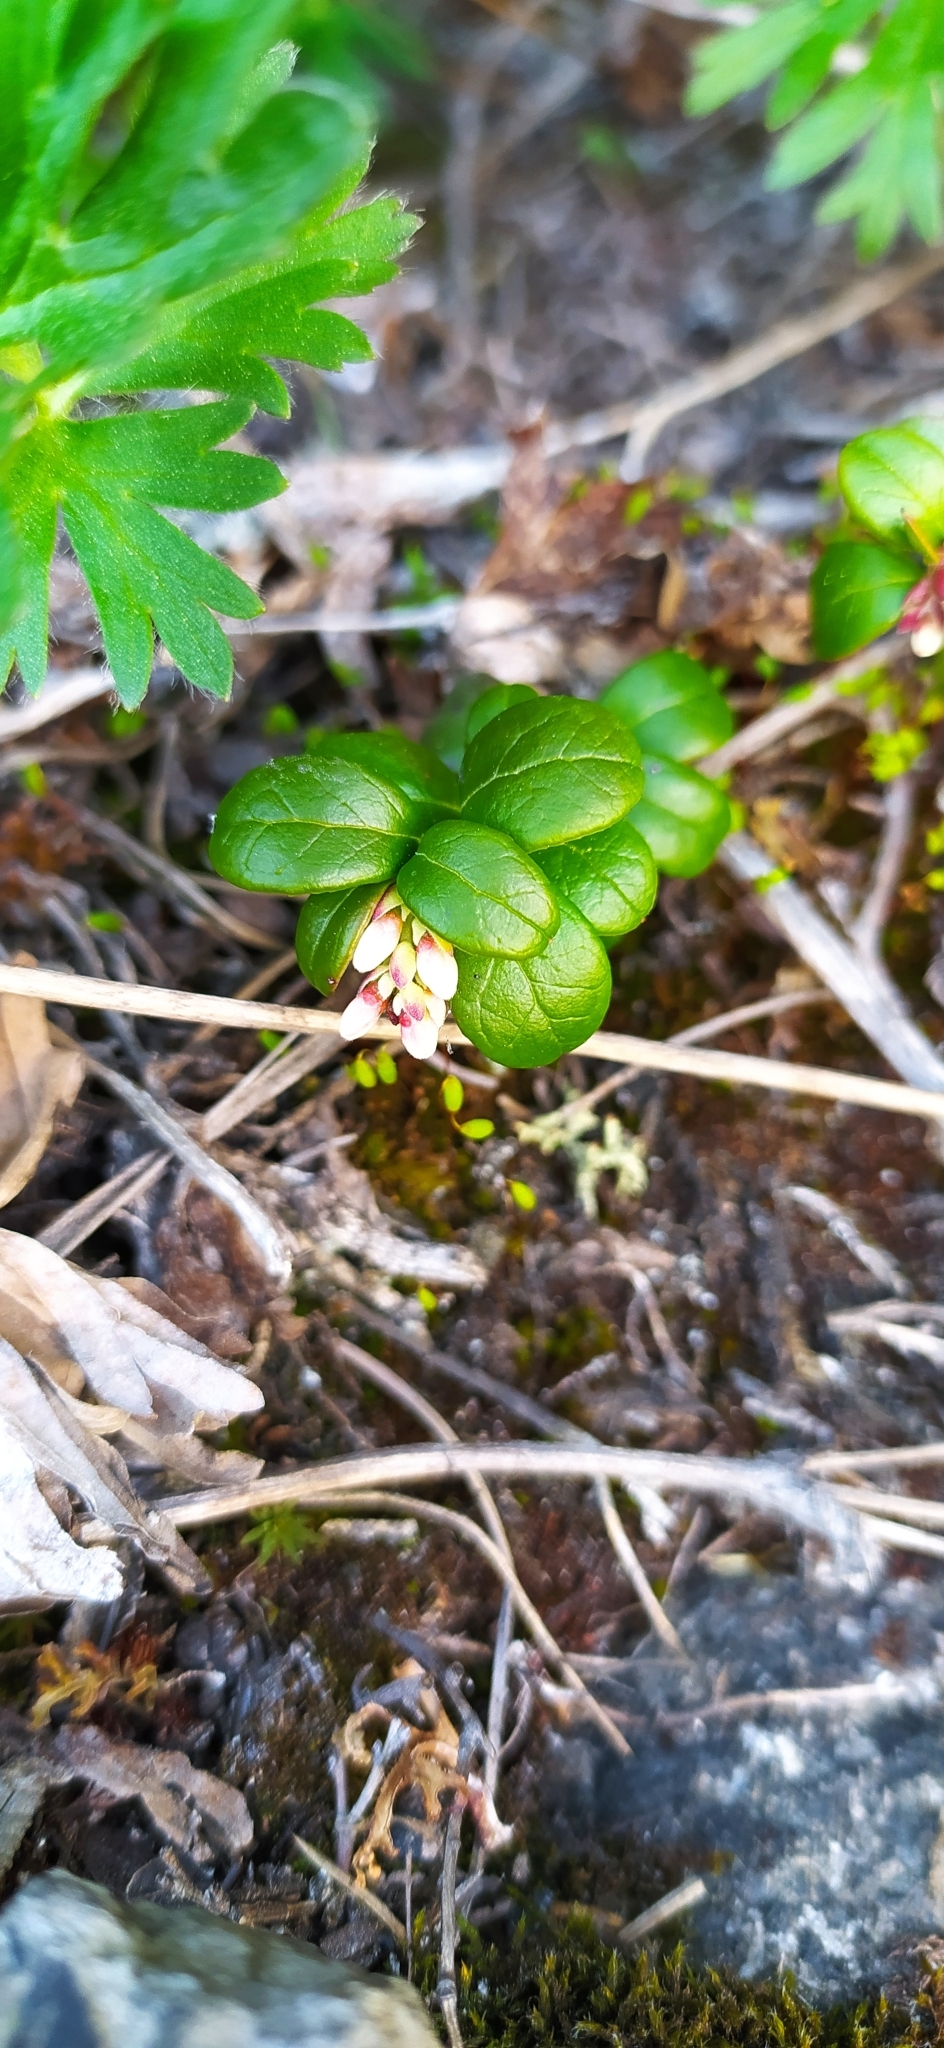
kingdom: Plantae
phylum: Tracheophyta
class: Magnoliopsida
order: Ericales
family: Ericaceae
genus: Vaccinium
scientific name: Vaccinium vitis-idaea
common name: Cowberry
